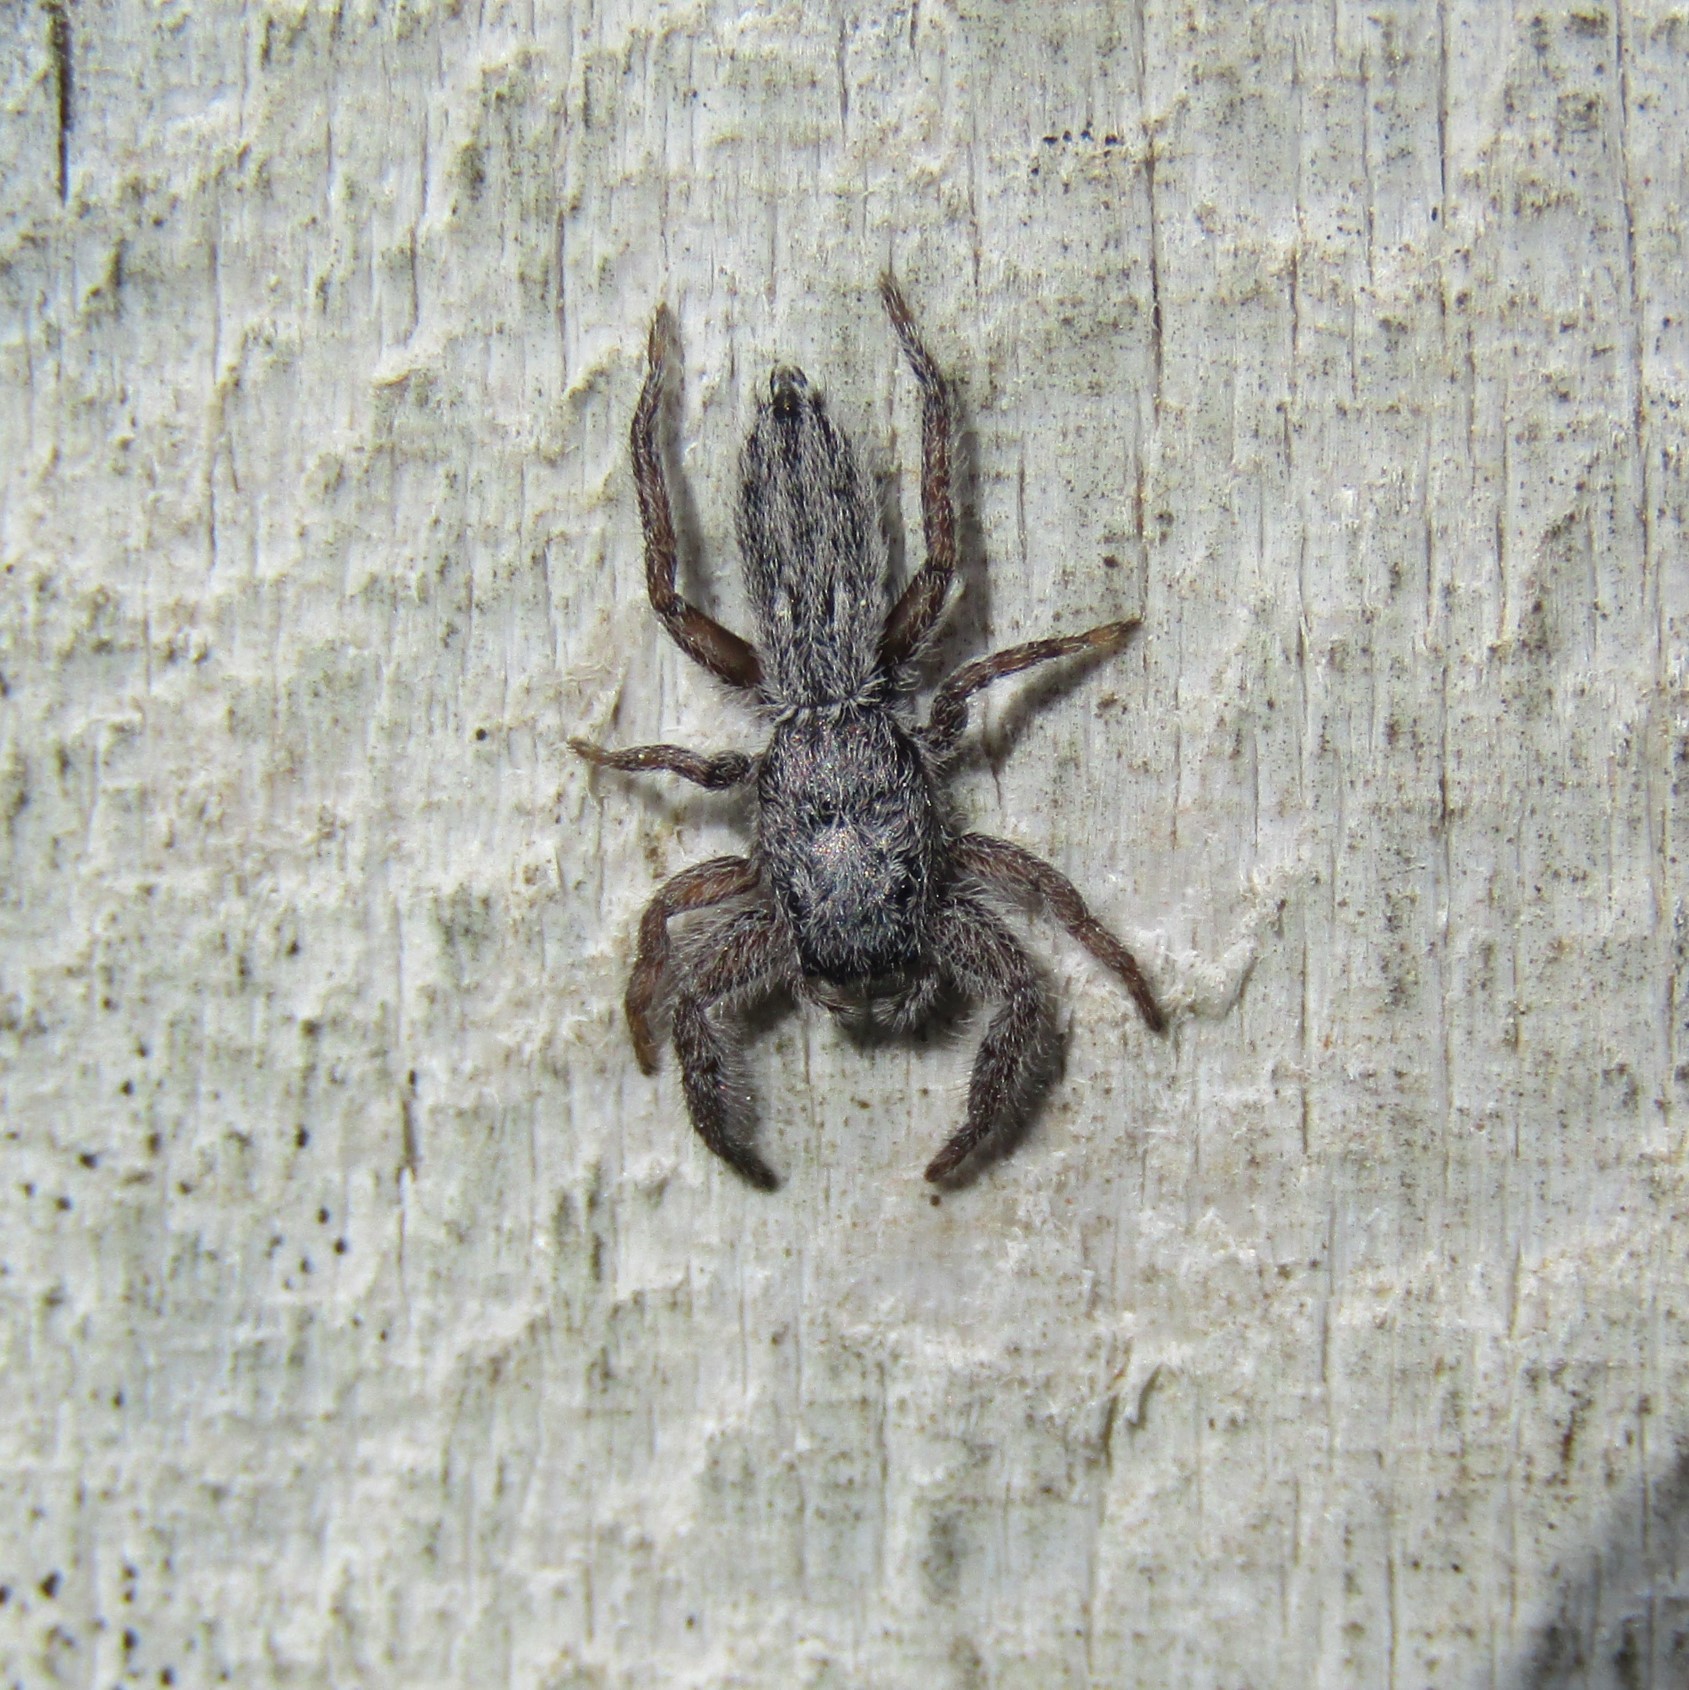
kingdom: Animalia
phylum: Arthropoda
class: Arachnida
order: Araneae
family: Salticidae
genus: Holoplatys
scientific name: Holoplatys apressus
